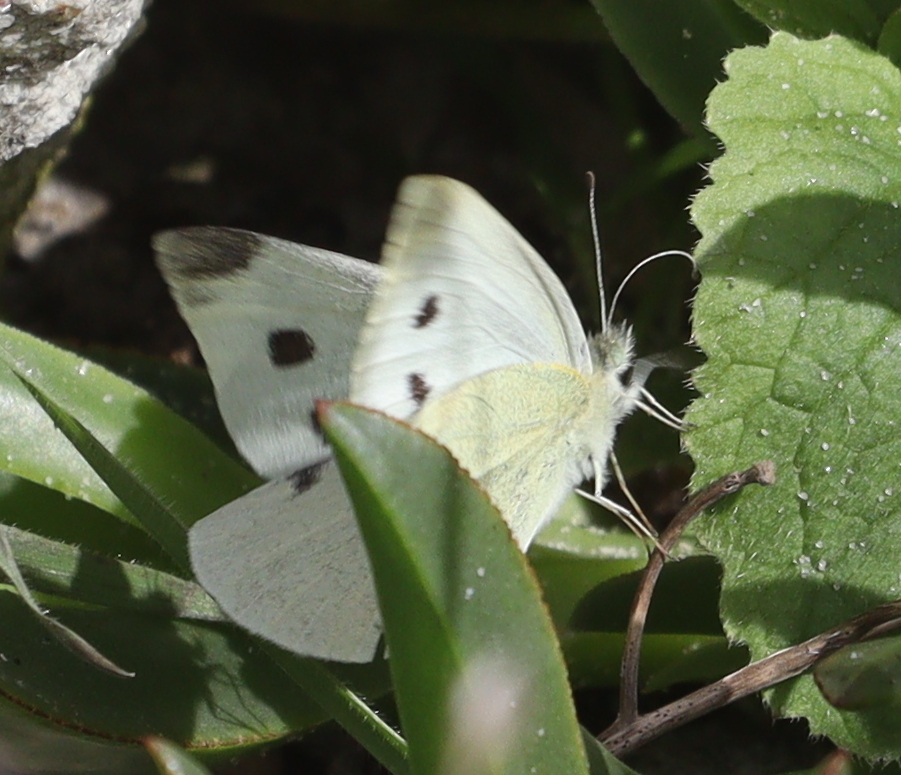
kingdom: Animalia
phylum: Arthropoda
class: Insecta
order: Lepidoptera
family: Pieridae
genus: Pieris
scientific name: Pieris rapae
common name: Small white
